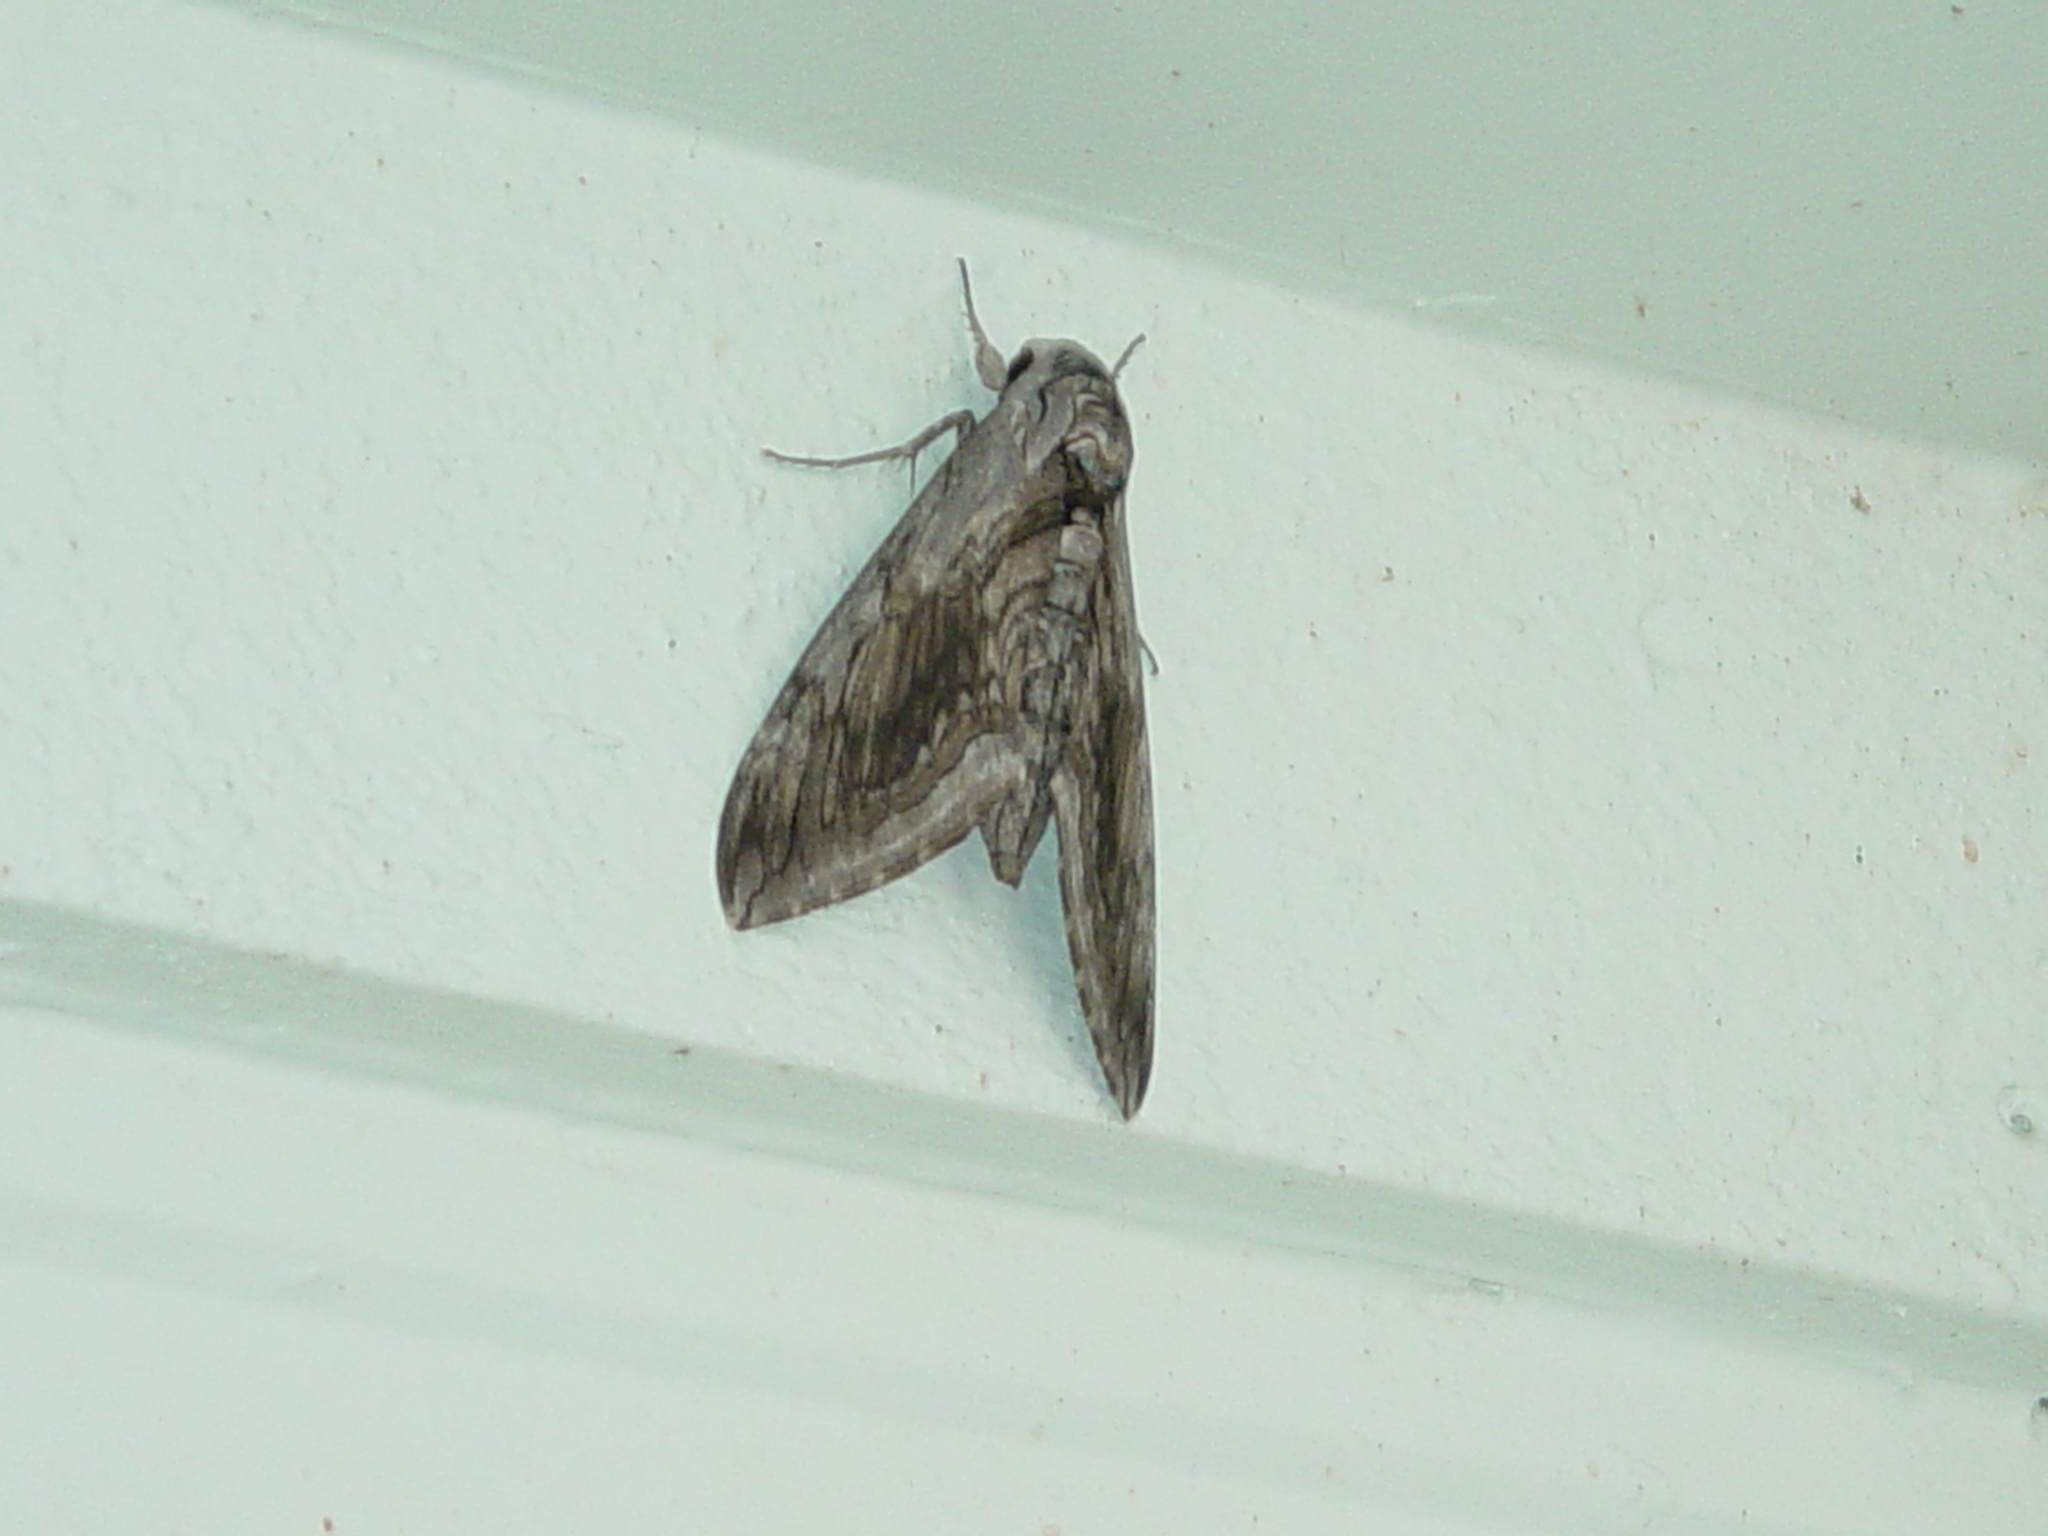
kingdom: Animalia
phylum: Arthropoda
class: Insecta
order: Lepidoptera
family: Sphingidae
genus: Manduca
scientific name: Manduca quinquemaculatus
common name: Five-spotted hawk-moth
